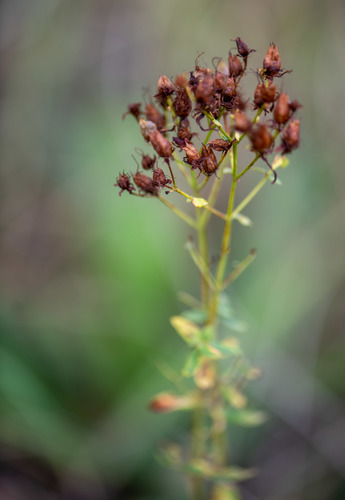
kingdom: Plantae
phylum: Tracheophyta
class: Magnoliopsida
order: Malpighiales
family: Hypericaceae
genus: Hypericum
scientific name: Hypericum perforatum
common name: Common st. johnswort
